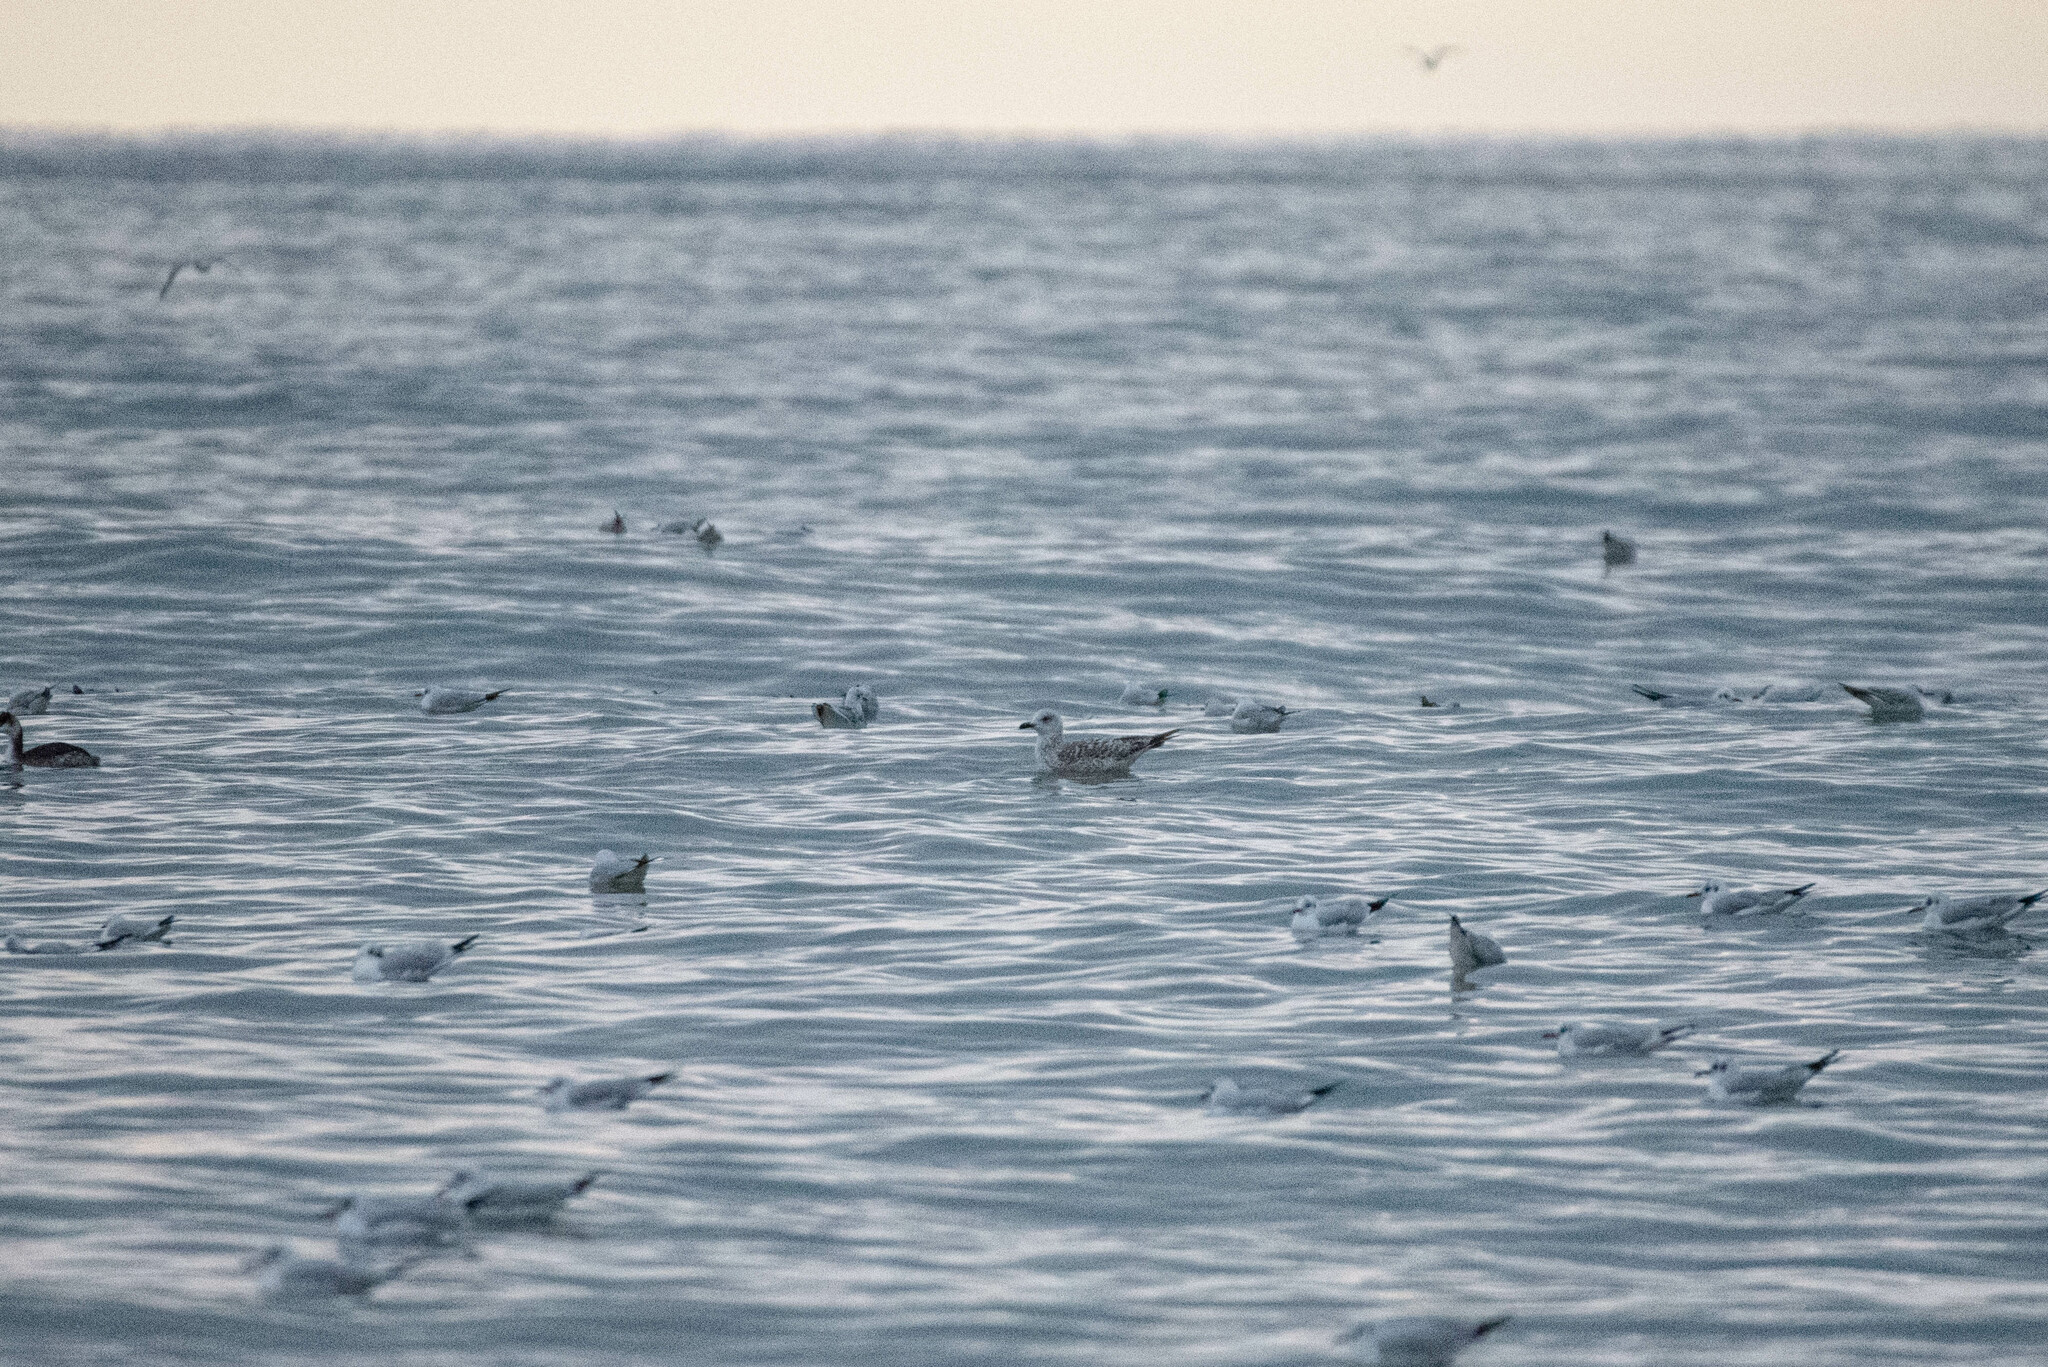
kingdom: Animalia
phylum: Chordata
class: Aves
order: Charadriiformes
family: Laridae
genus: Larus
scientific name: Larus michahellis
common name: Yellow-legged gull
